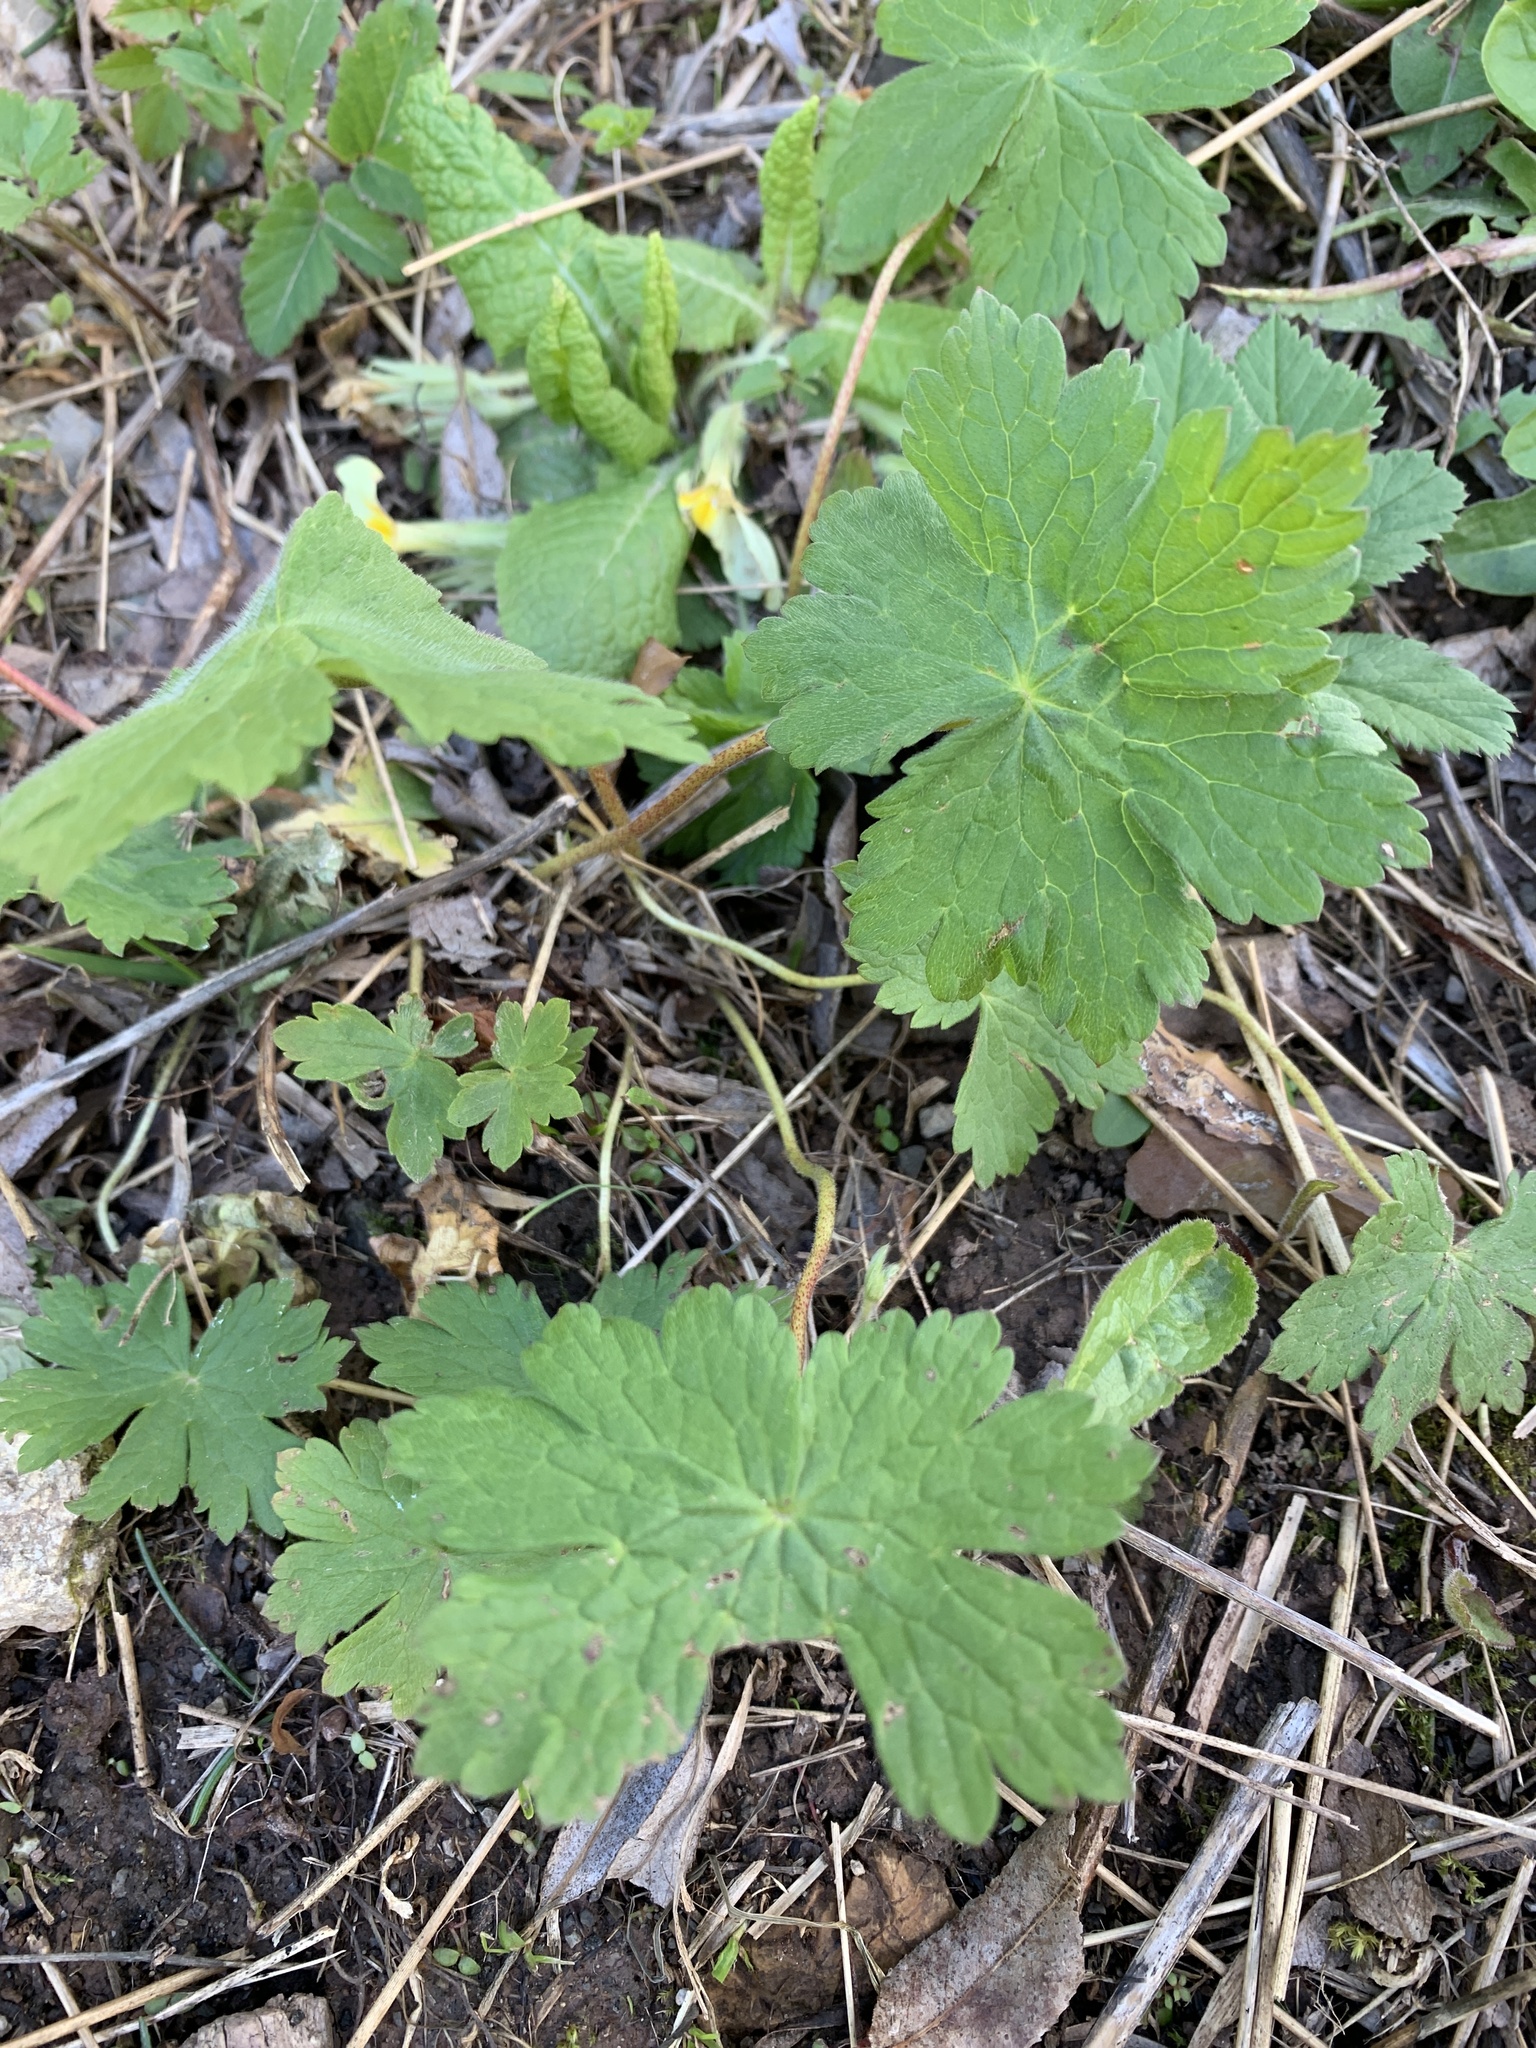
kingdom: Plantae
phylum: Tracheophyta
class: Magnoliopsida
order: Geraniales
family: Geraniaceae
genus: Geranium
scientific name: Geranium phaeum
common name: Dusky crane's-bill
